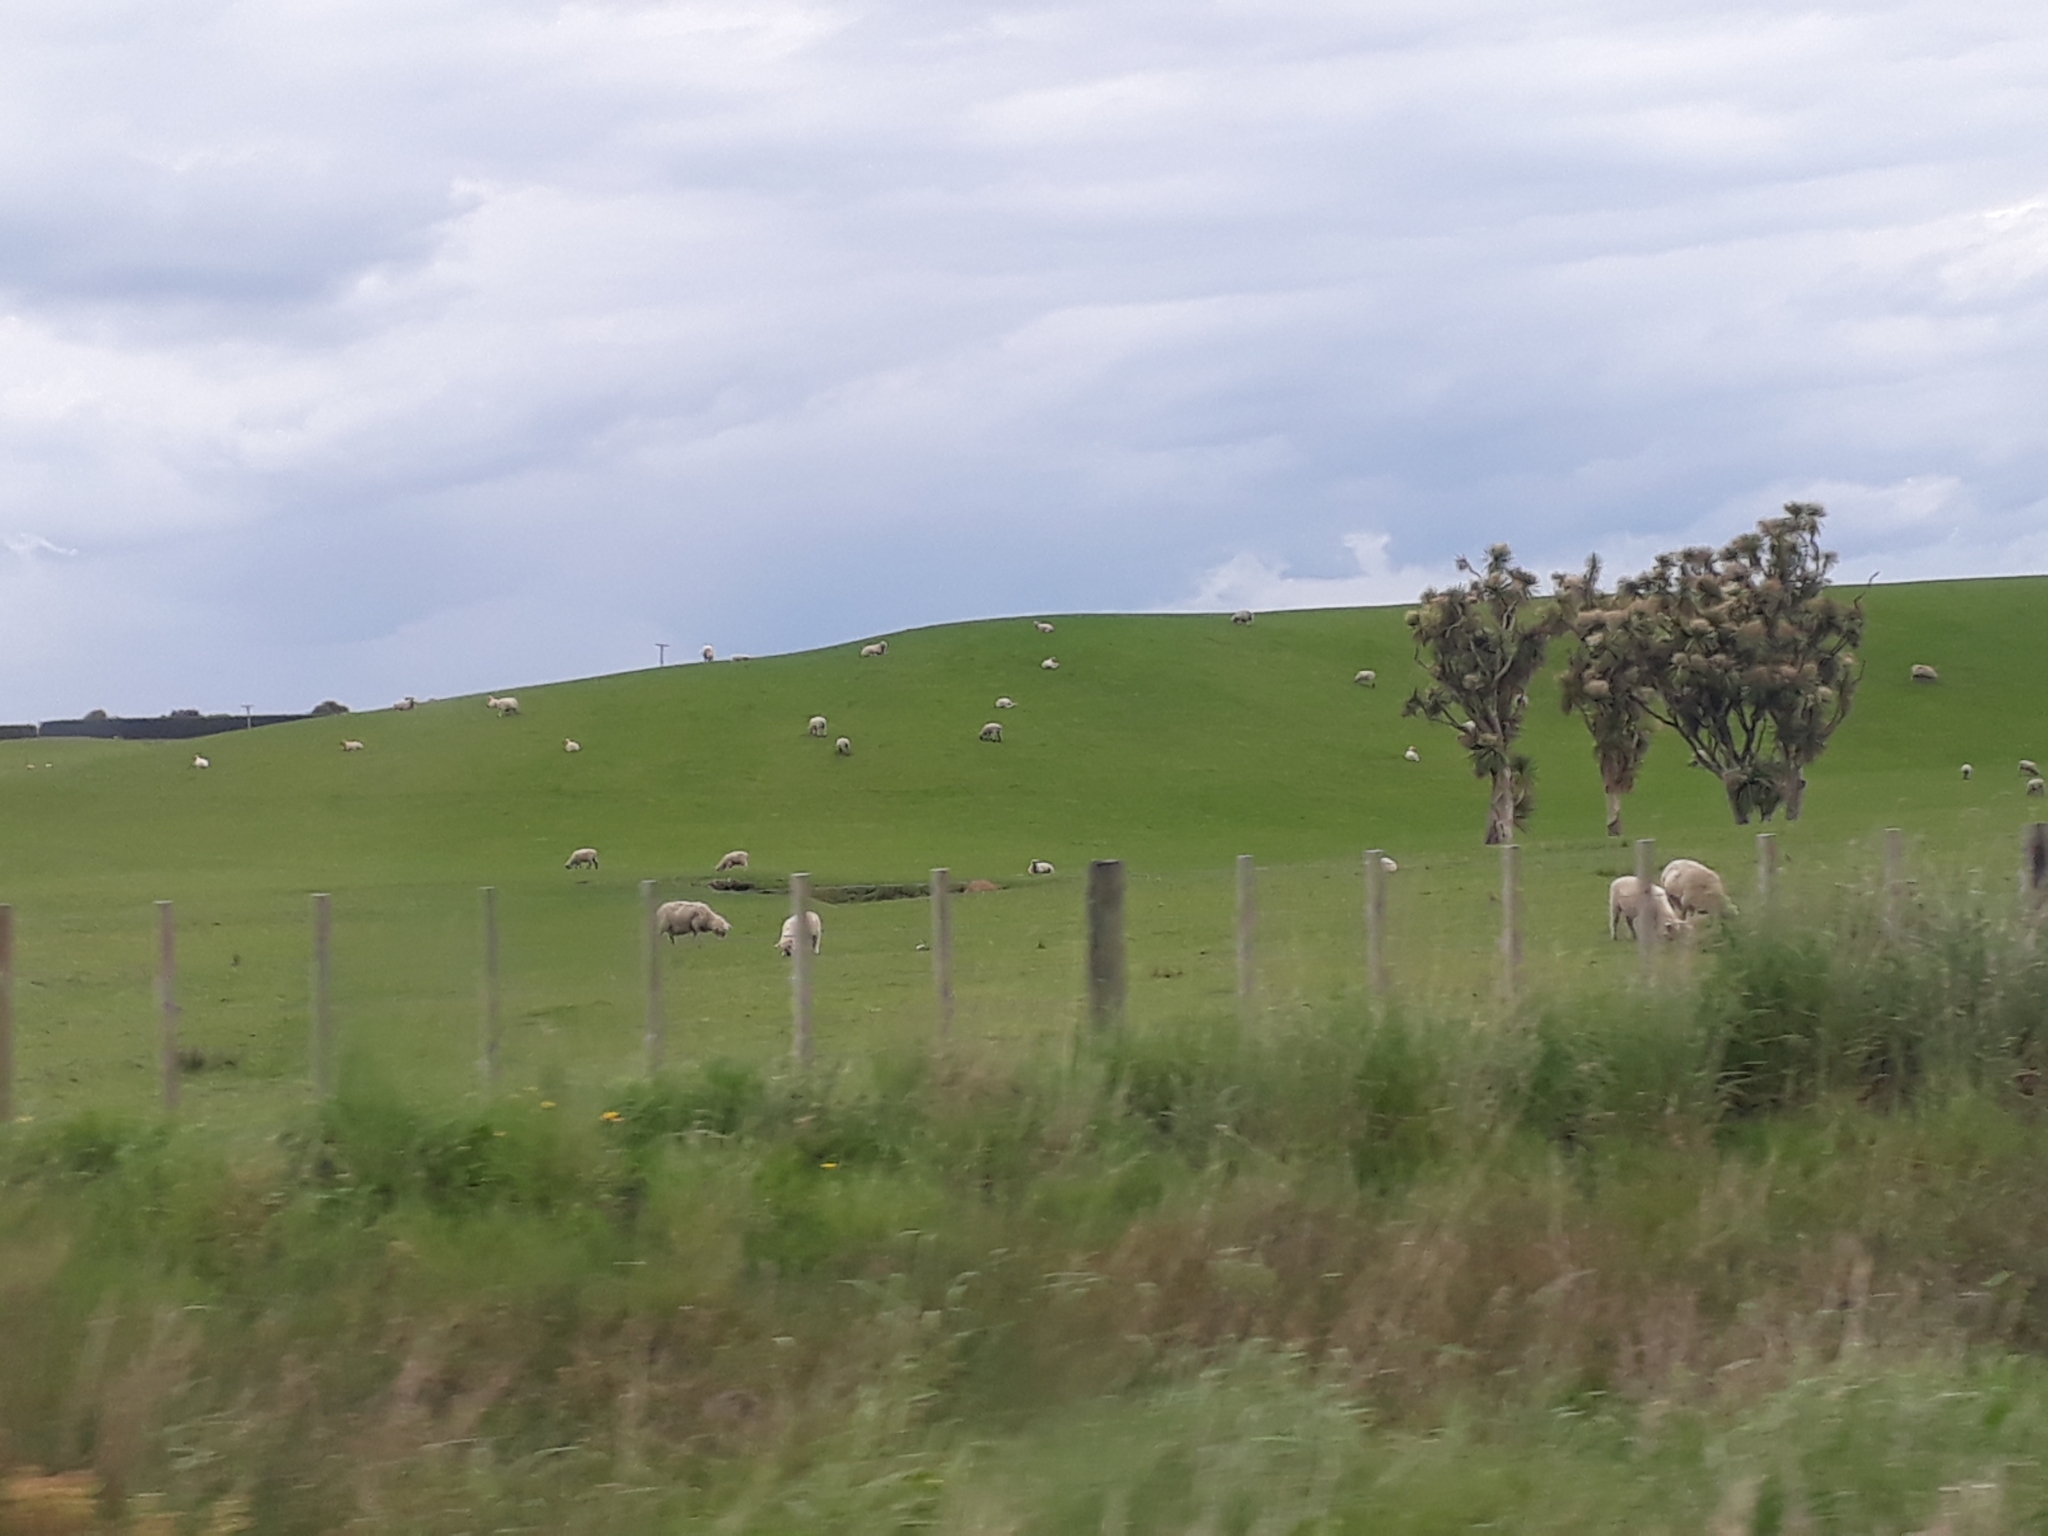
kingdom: Plantae
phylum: Tracheophyta
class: Liliopsida
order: Asparagales
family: Asparagaceae
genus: Cordyline
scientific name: Cordyline australis
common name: Cabbage-palm
